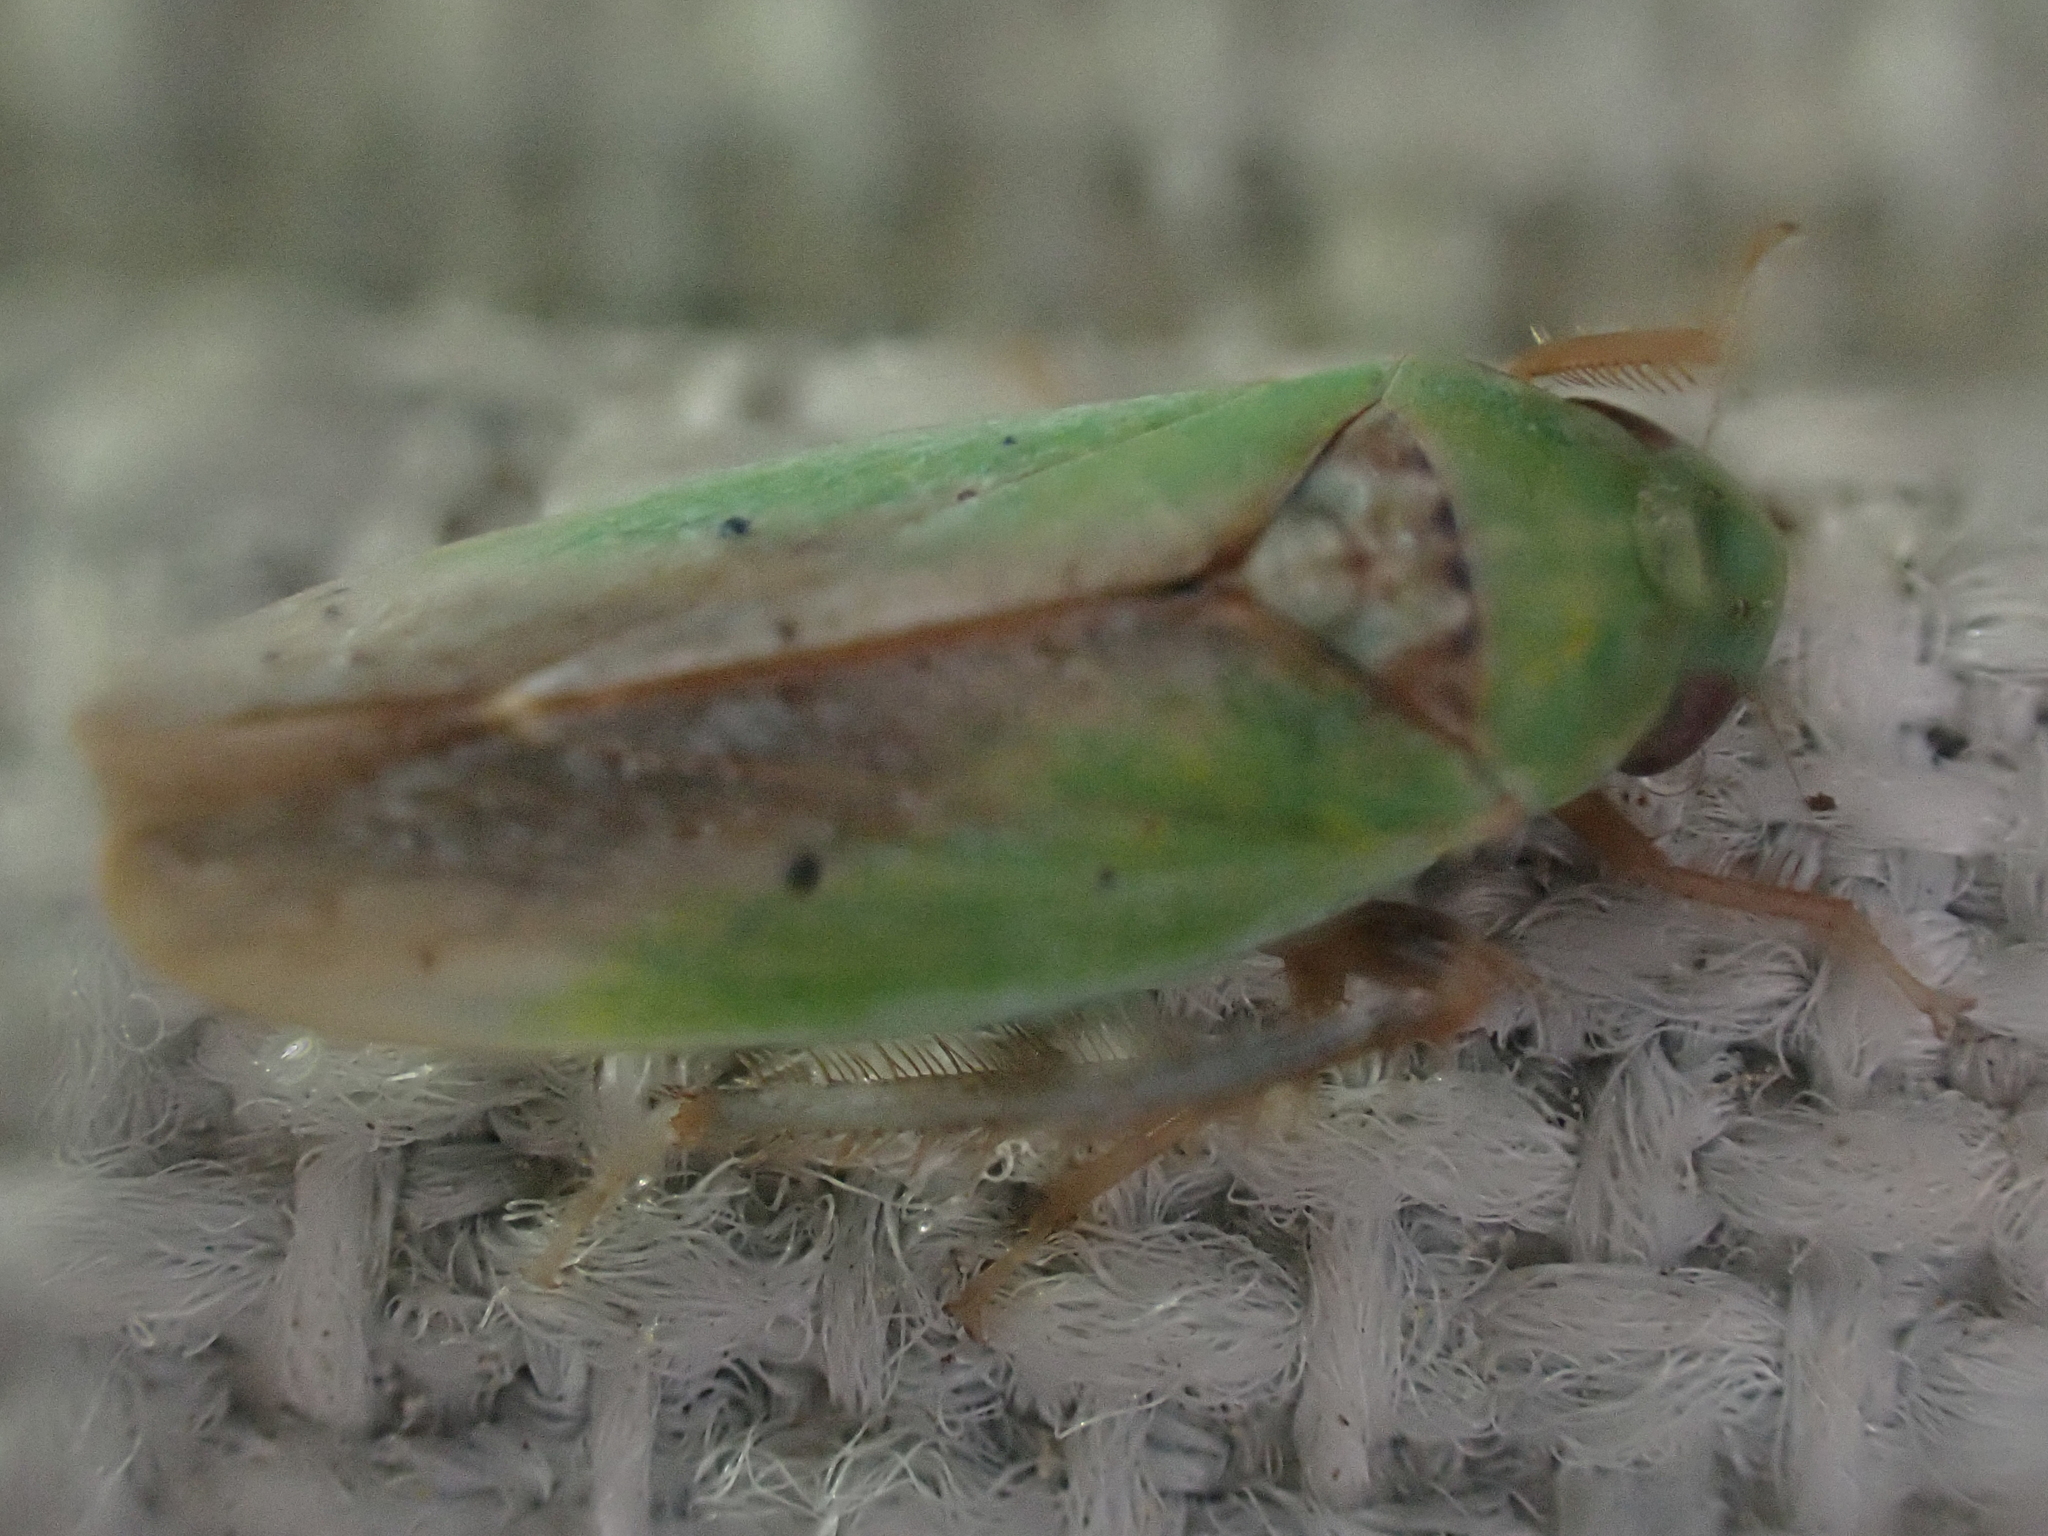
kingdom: Animalia
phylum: Arthropoda
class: Insecta
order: Hemiptera
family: Cicadellidae
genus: Ponana
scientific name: Ponana pectoralis
